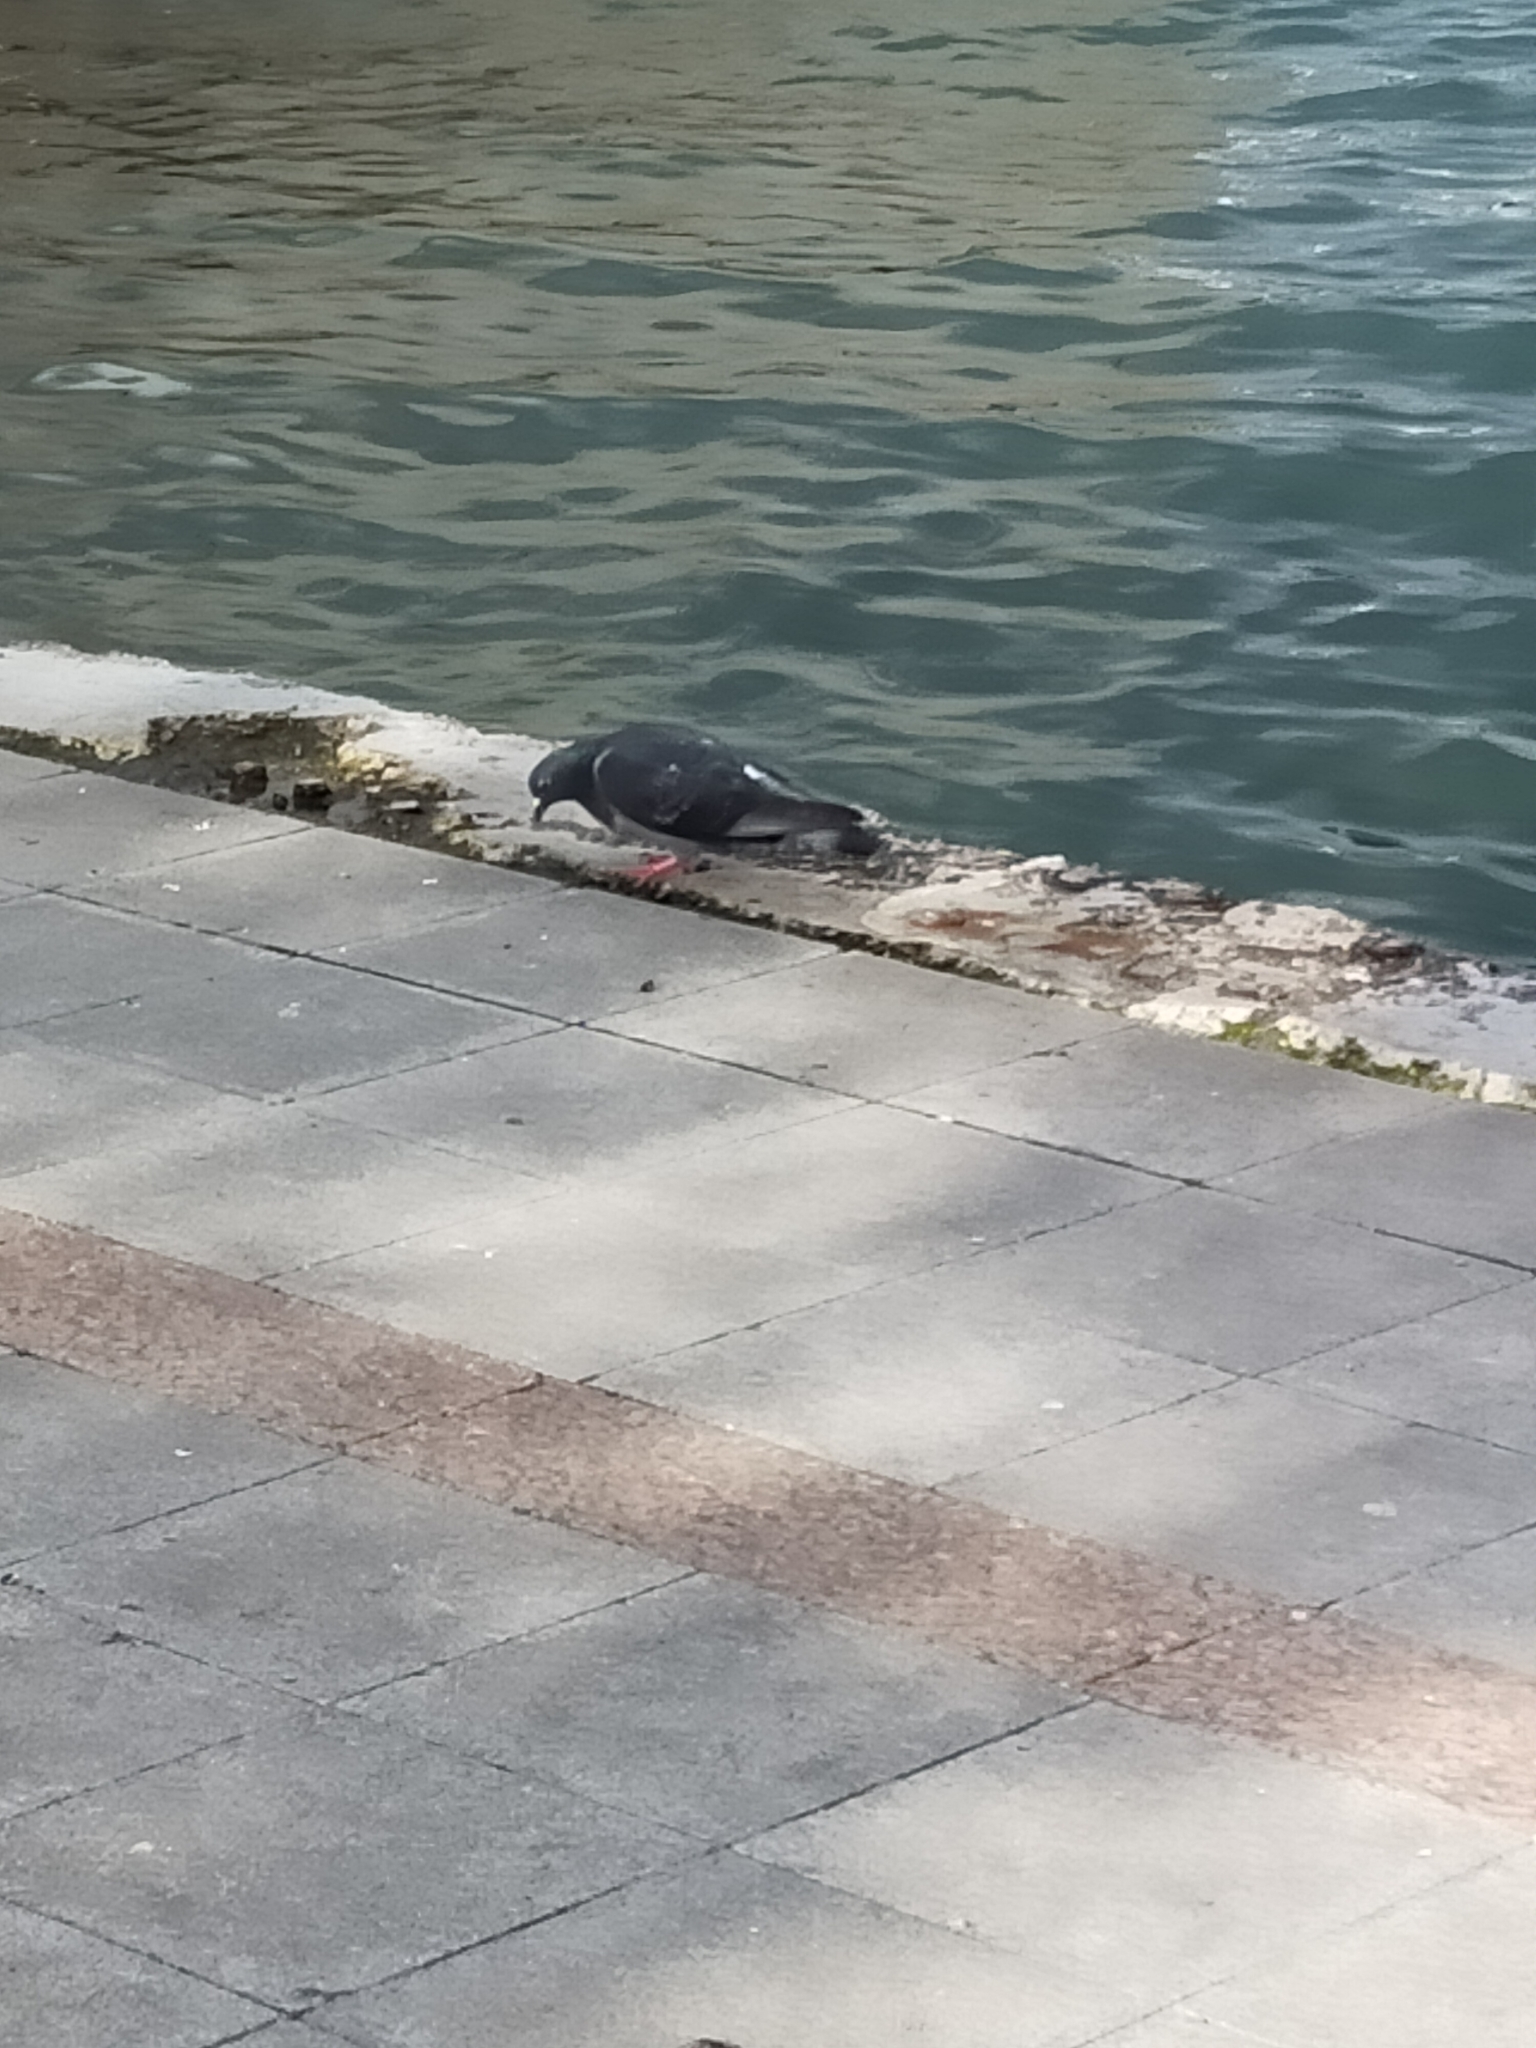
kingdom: Animalia
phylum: Chordata
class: Aves
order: Columbiformes
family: Columbidae
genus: Columba
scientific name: Columba livia
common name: Rock pigeon
